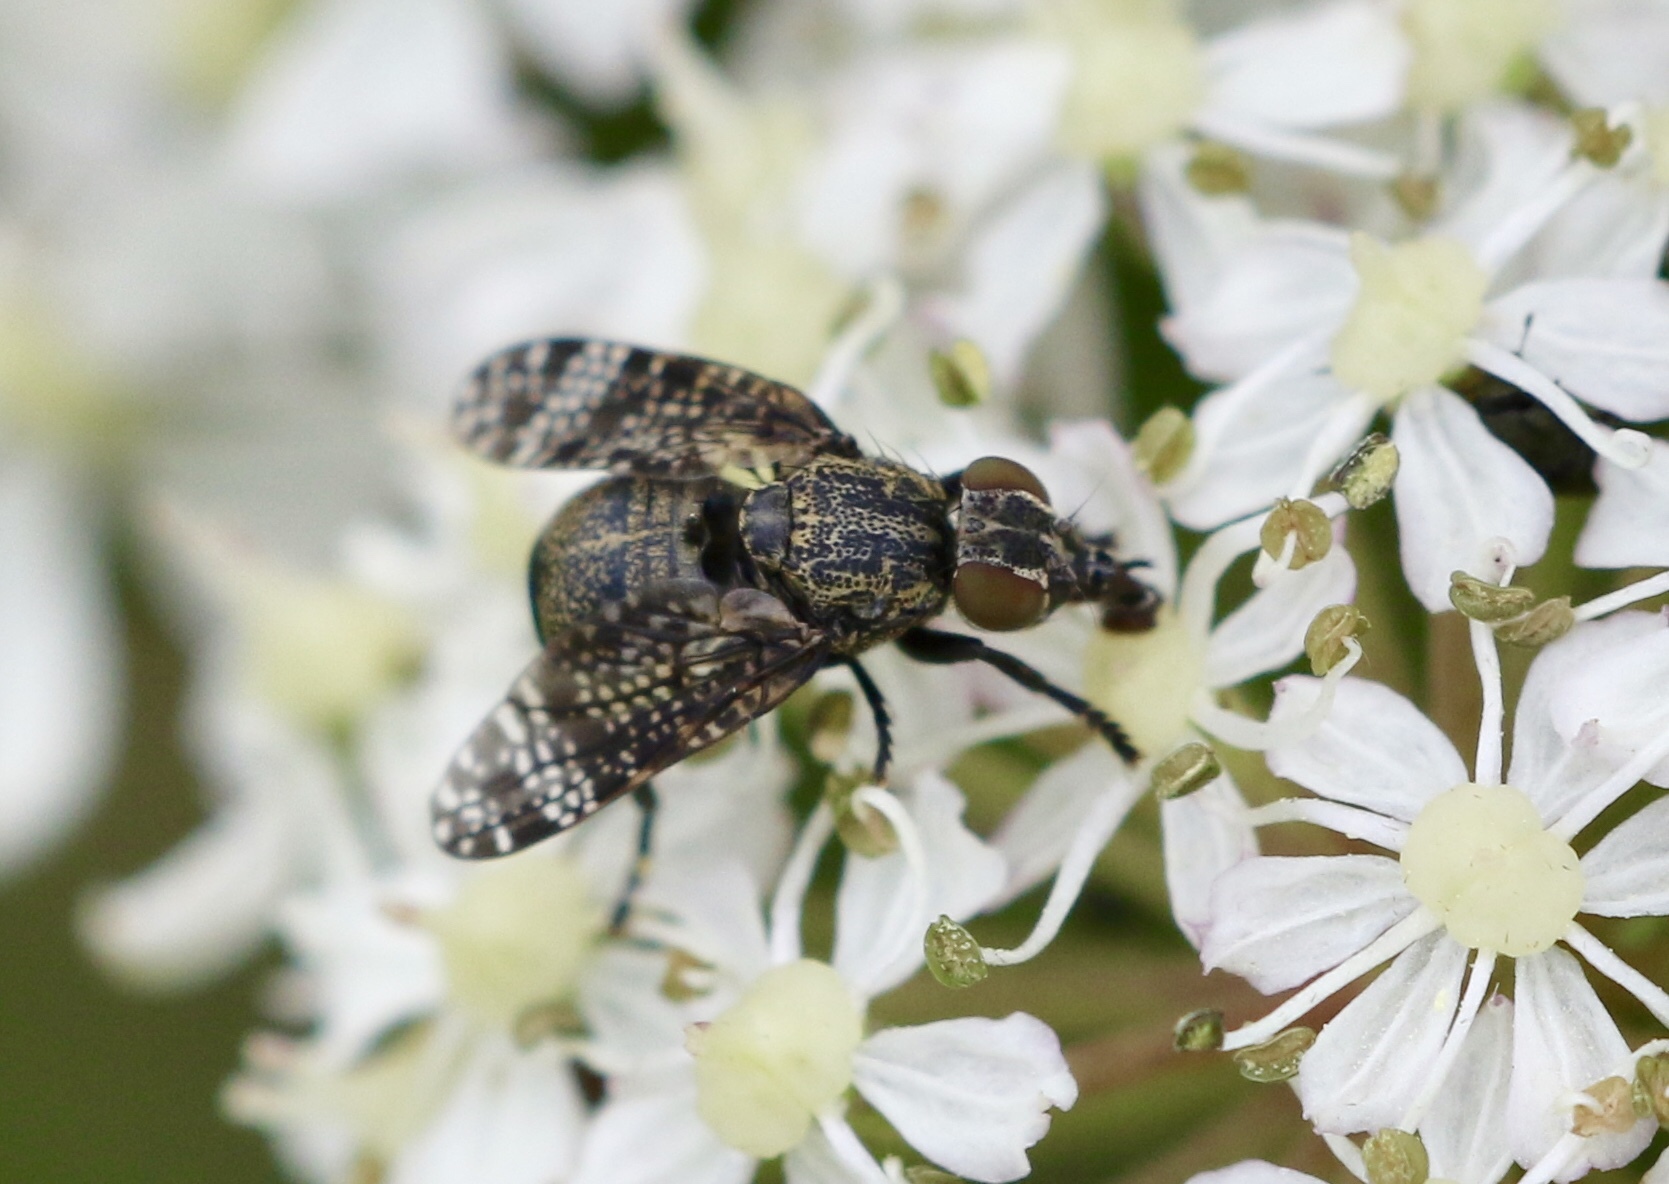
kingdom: Animalia
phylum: Arthropoda
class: Insecta
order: Diptera
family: Platystomatidae
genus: Platystoma
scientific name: Platystoma seminationis
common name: Fly
